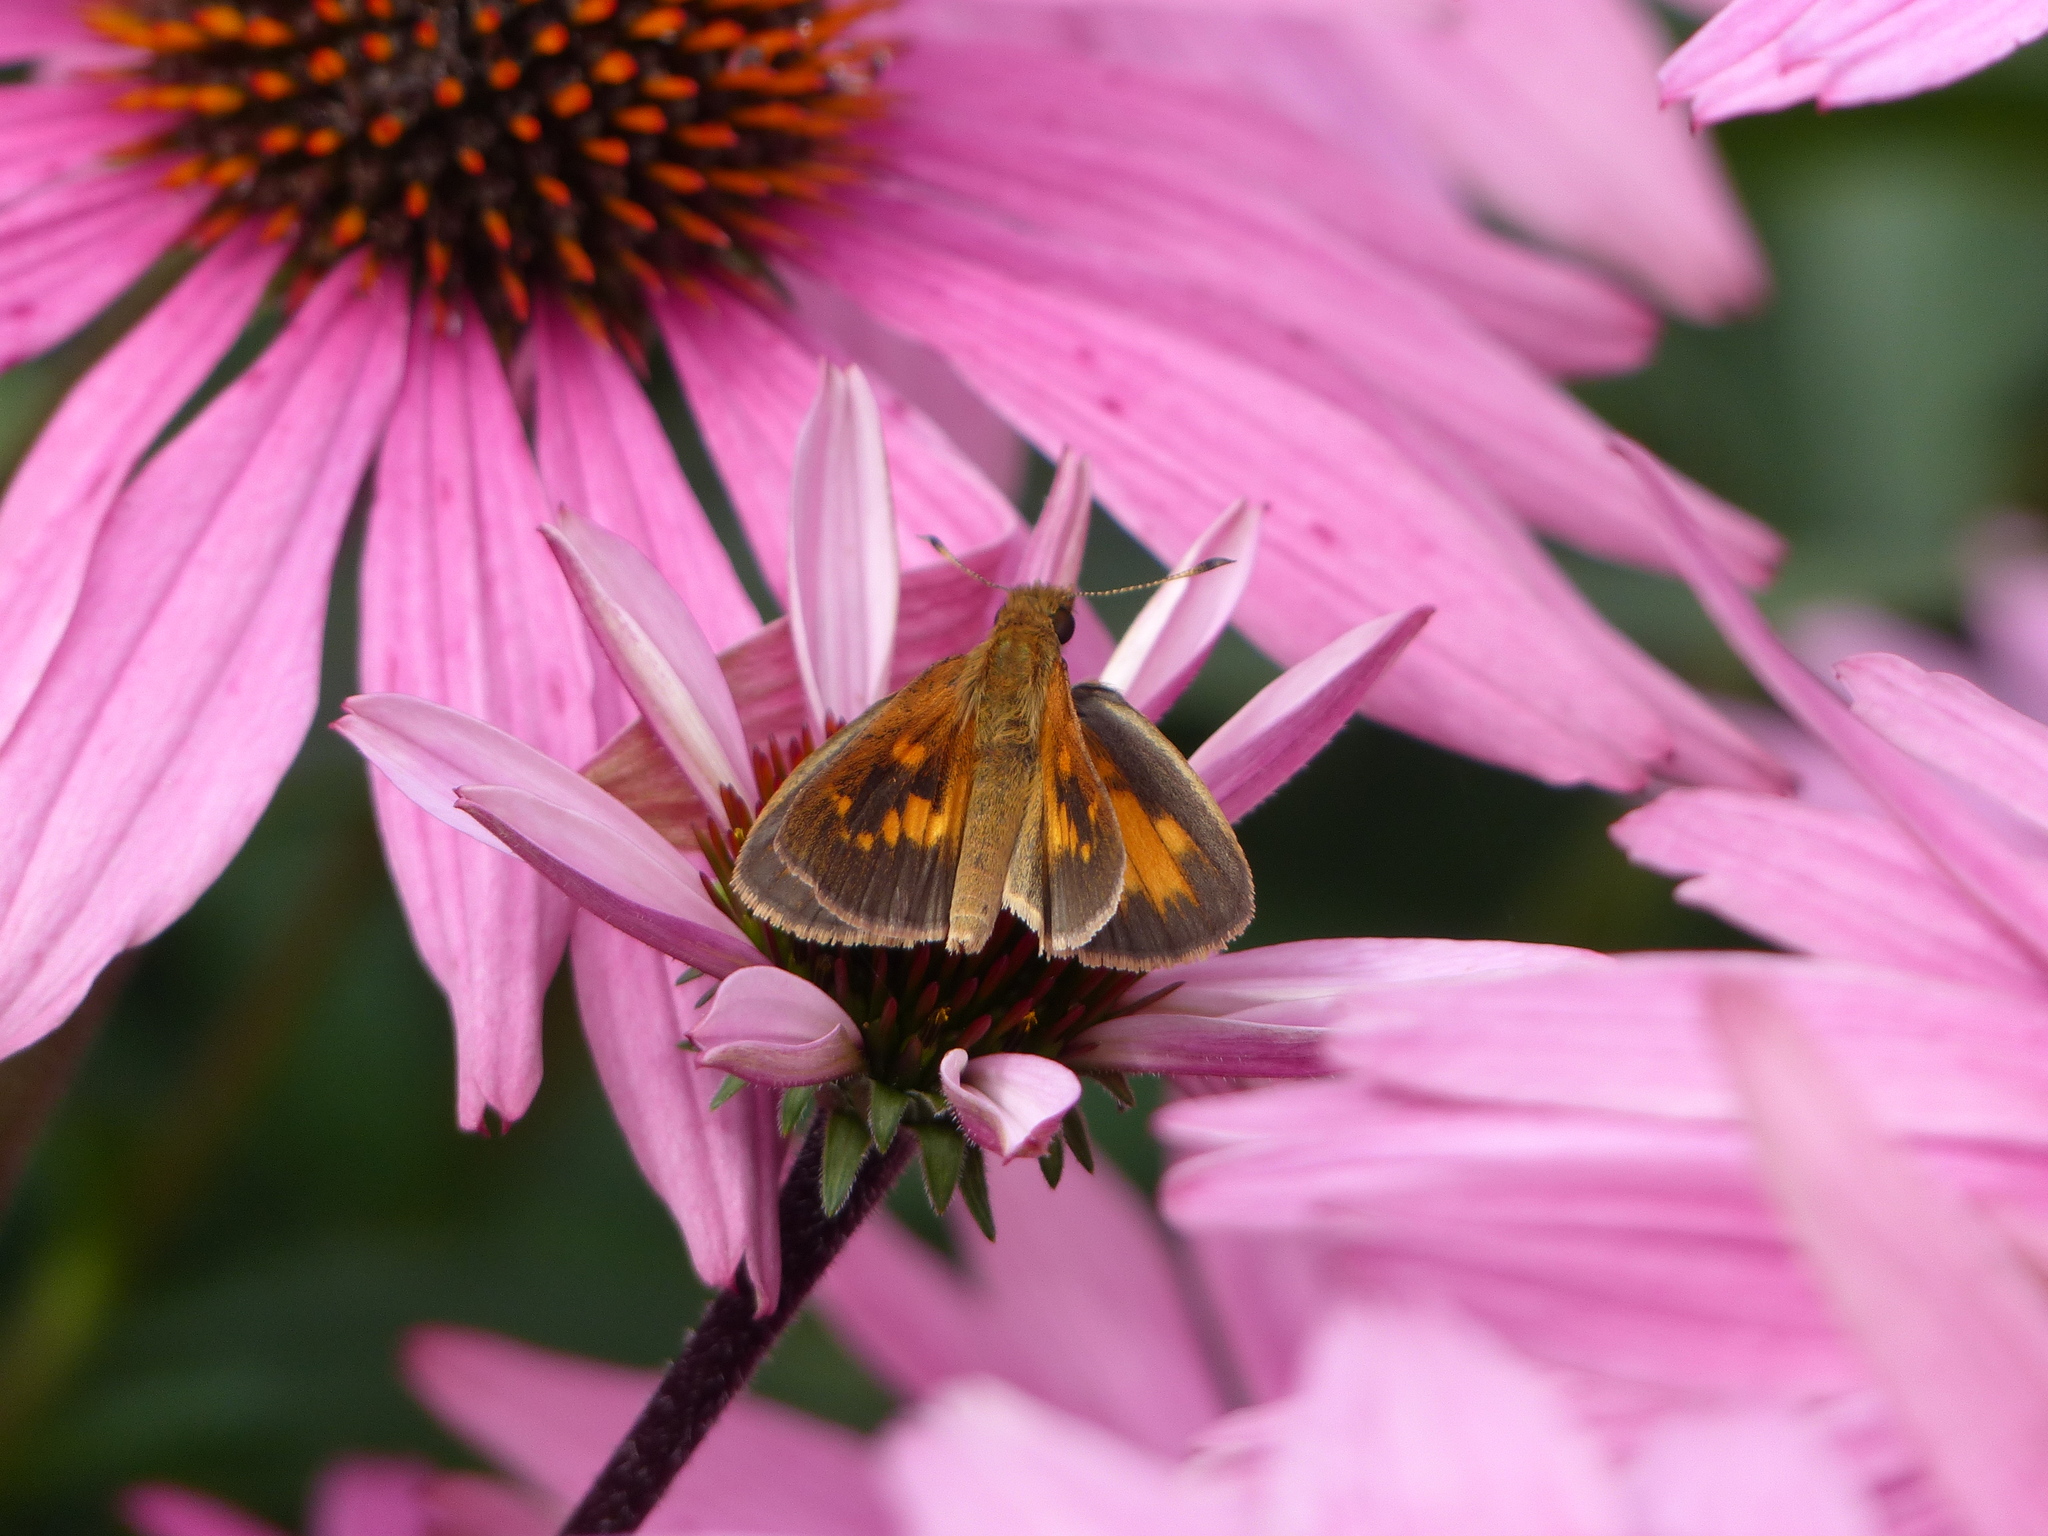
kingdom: Animalia
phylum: Arthropoda
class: Insecta
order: Lepidoptera
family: Hesperiidae
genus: Poanes
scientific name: Poanes viator
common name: Broad-winged skipper
